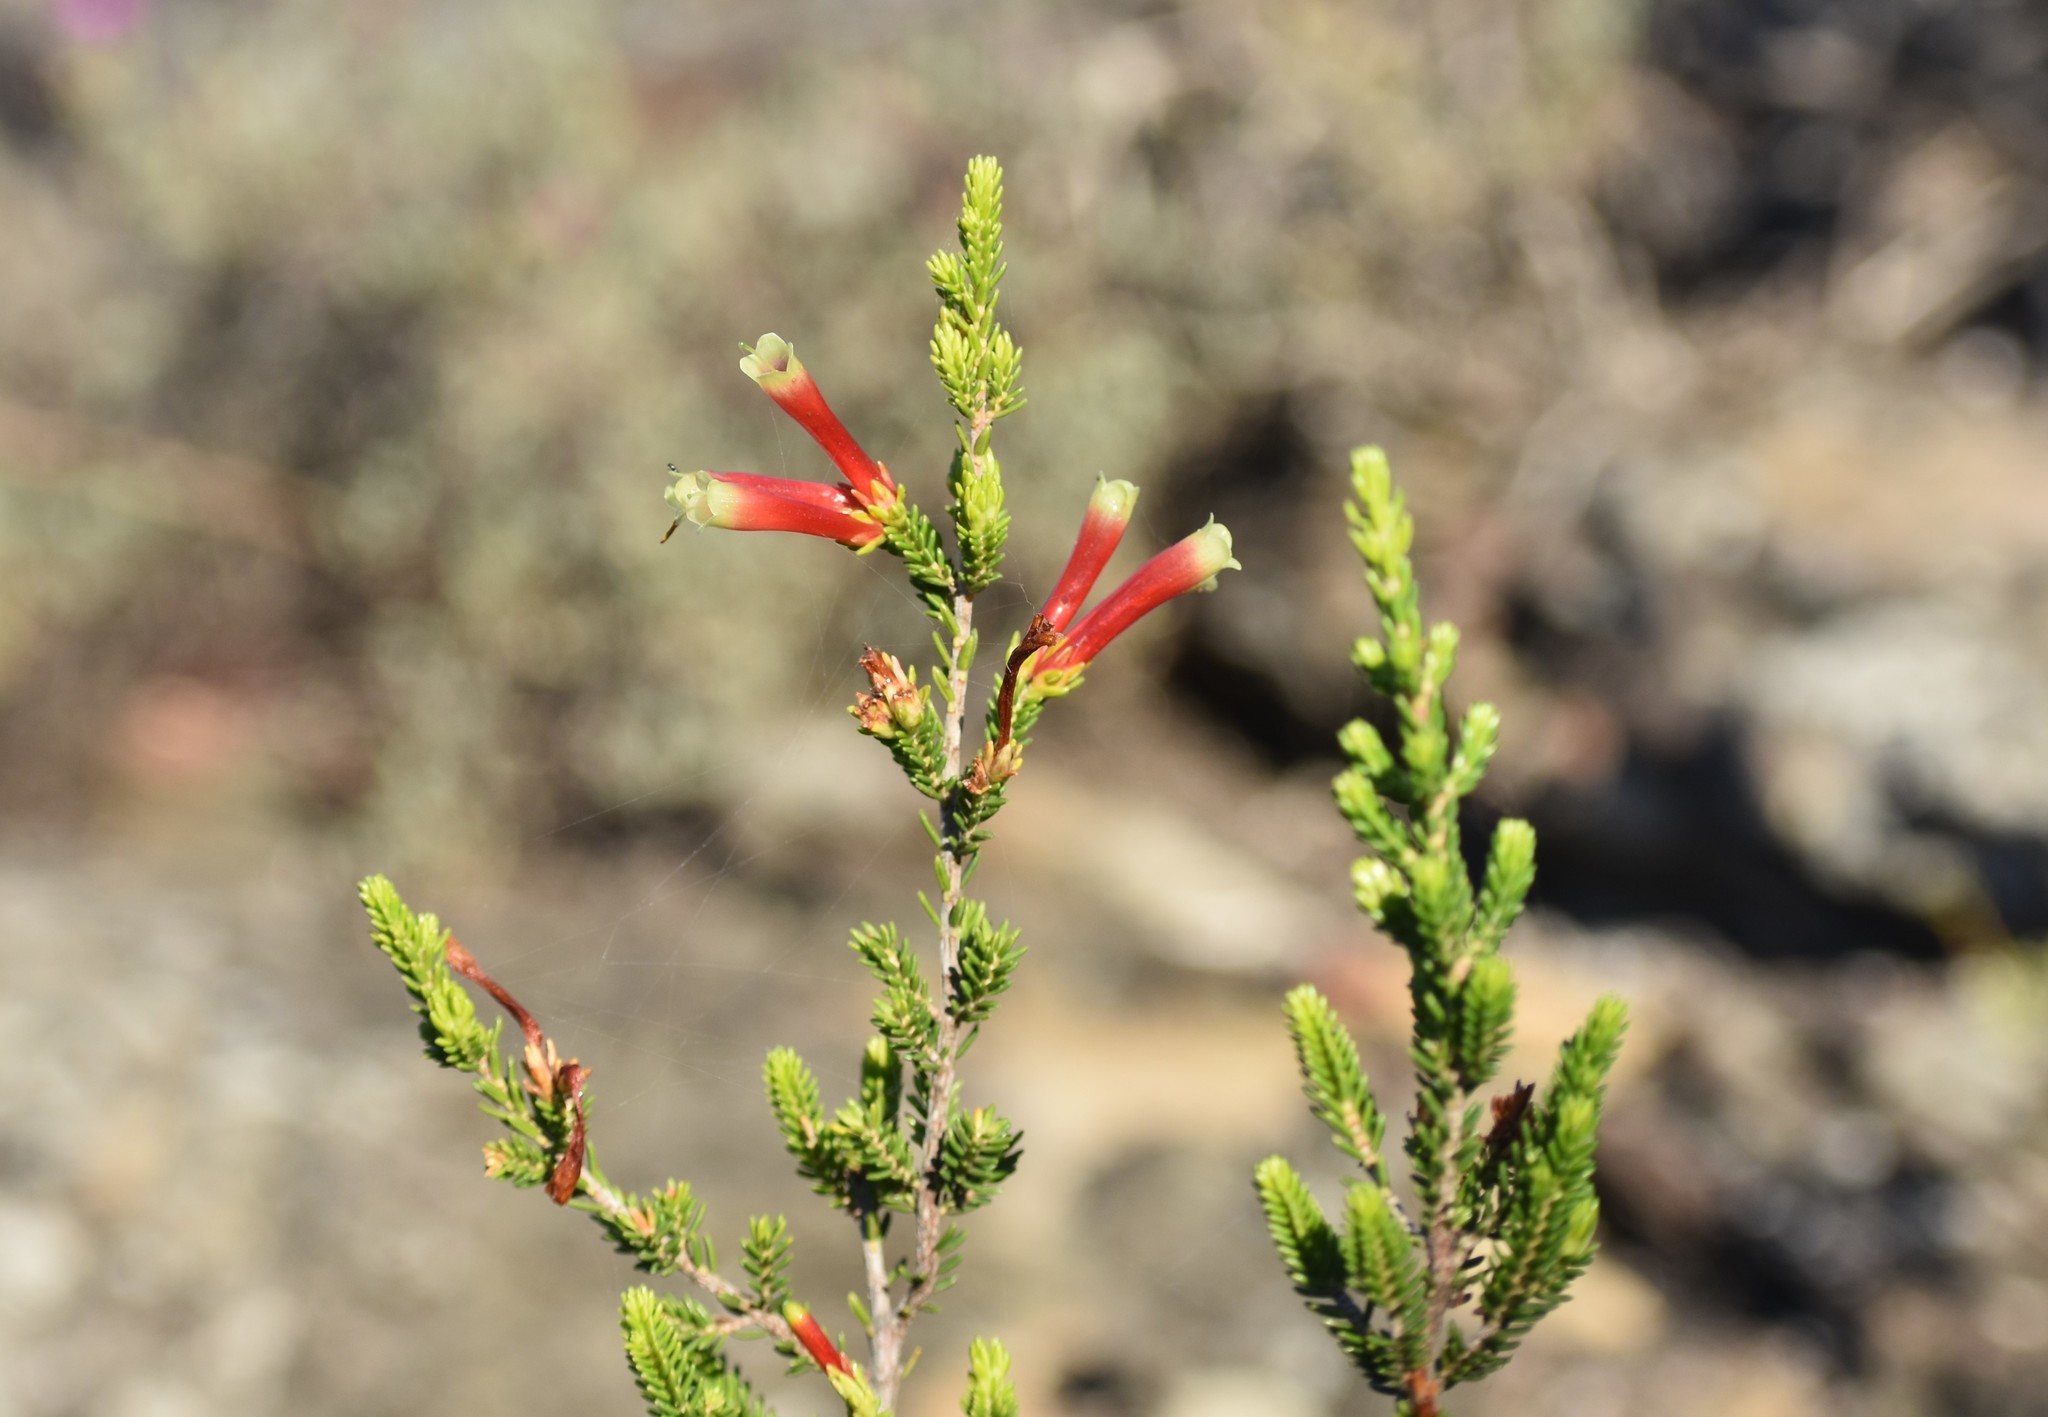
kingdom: Plantae
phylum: Tracheophyta
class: Magnoliopsida
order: Ericales
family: Ericaceae
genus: Erica
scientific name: Erica discolor
